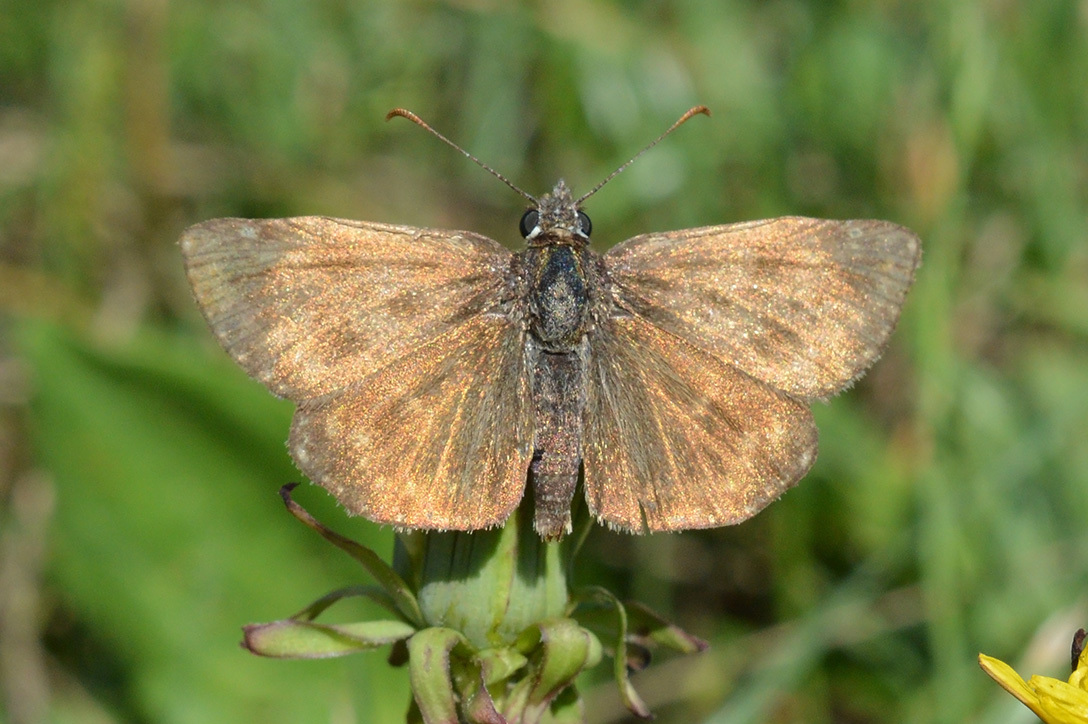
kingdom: Animalia
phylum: Arthropoda
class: Insecta
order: Lepidoptera
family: Hesperiidae
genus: Erynnis
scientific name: Erynnis tages
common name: Dingy skipper
